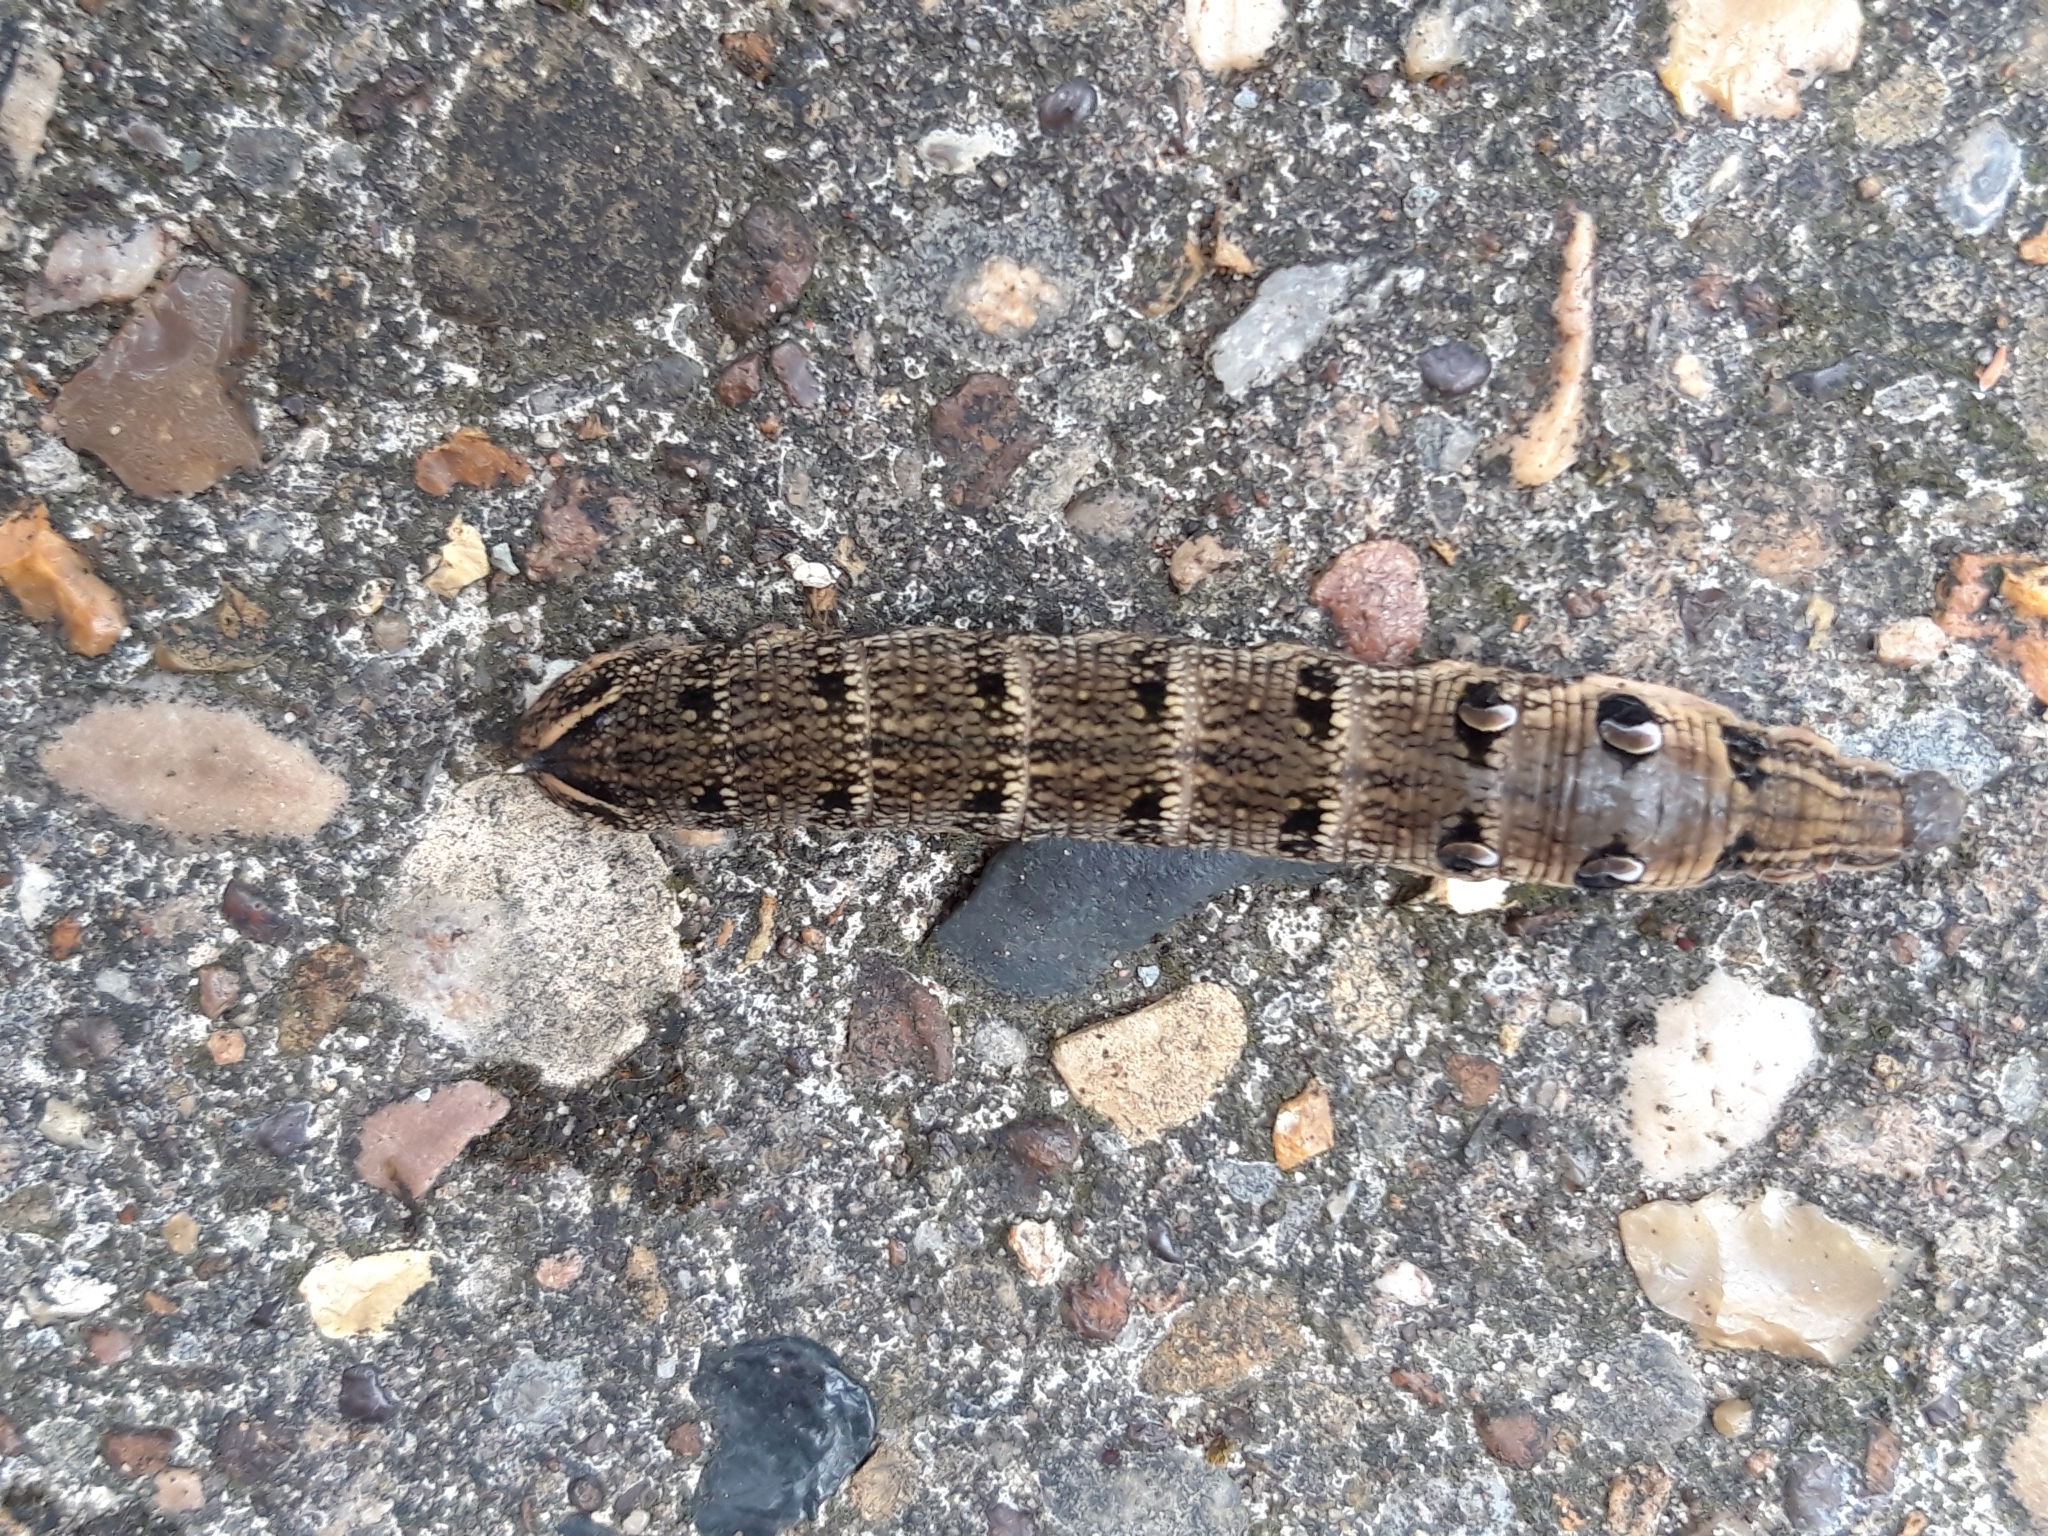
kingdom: Animalia
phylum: Arthropoda
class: Insecta
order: Lepidoptera
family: Sphingidae
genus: Deilephila
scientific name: Deilephila elpenor
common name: Elephant hawk-moth
